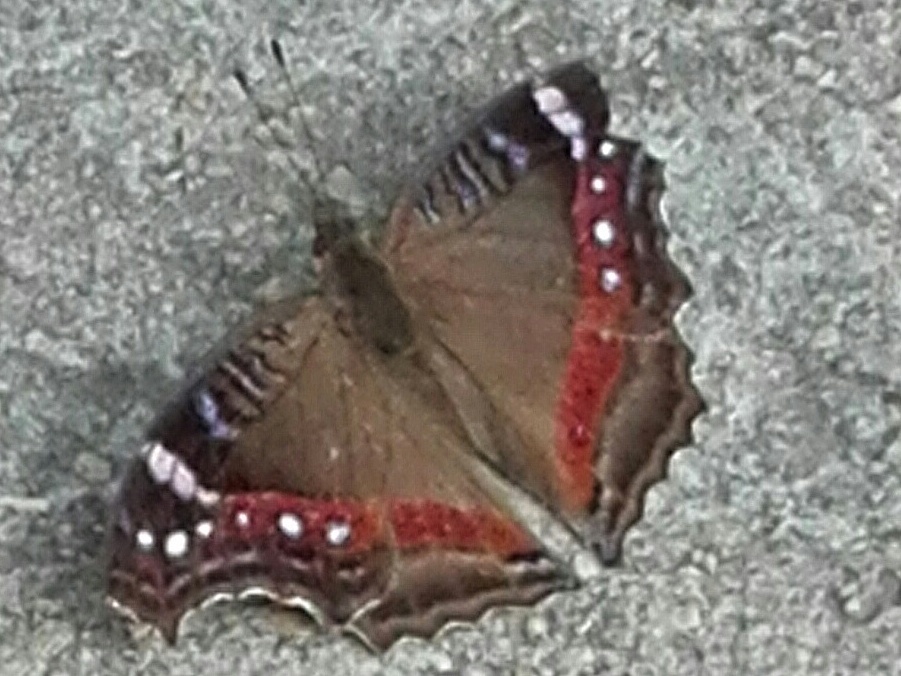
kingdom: Animalia
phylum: Arthropoda
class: Insecta
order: Lepidoptera
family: Nymphalidae
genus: Junonia
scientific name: Junonia archesia
